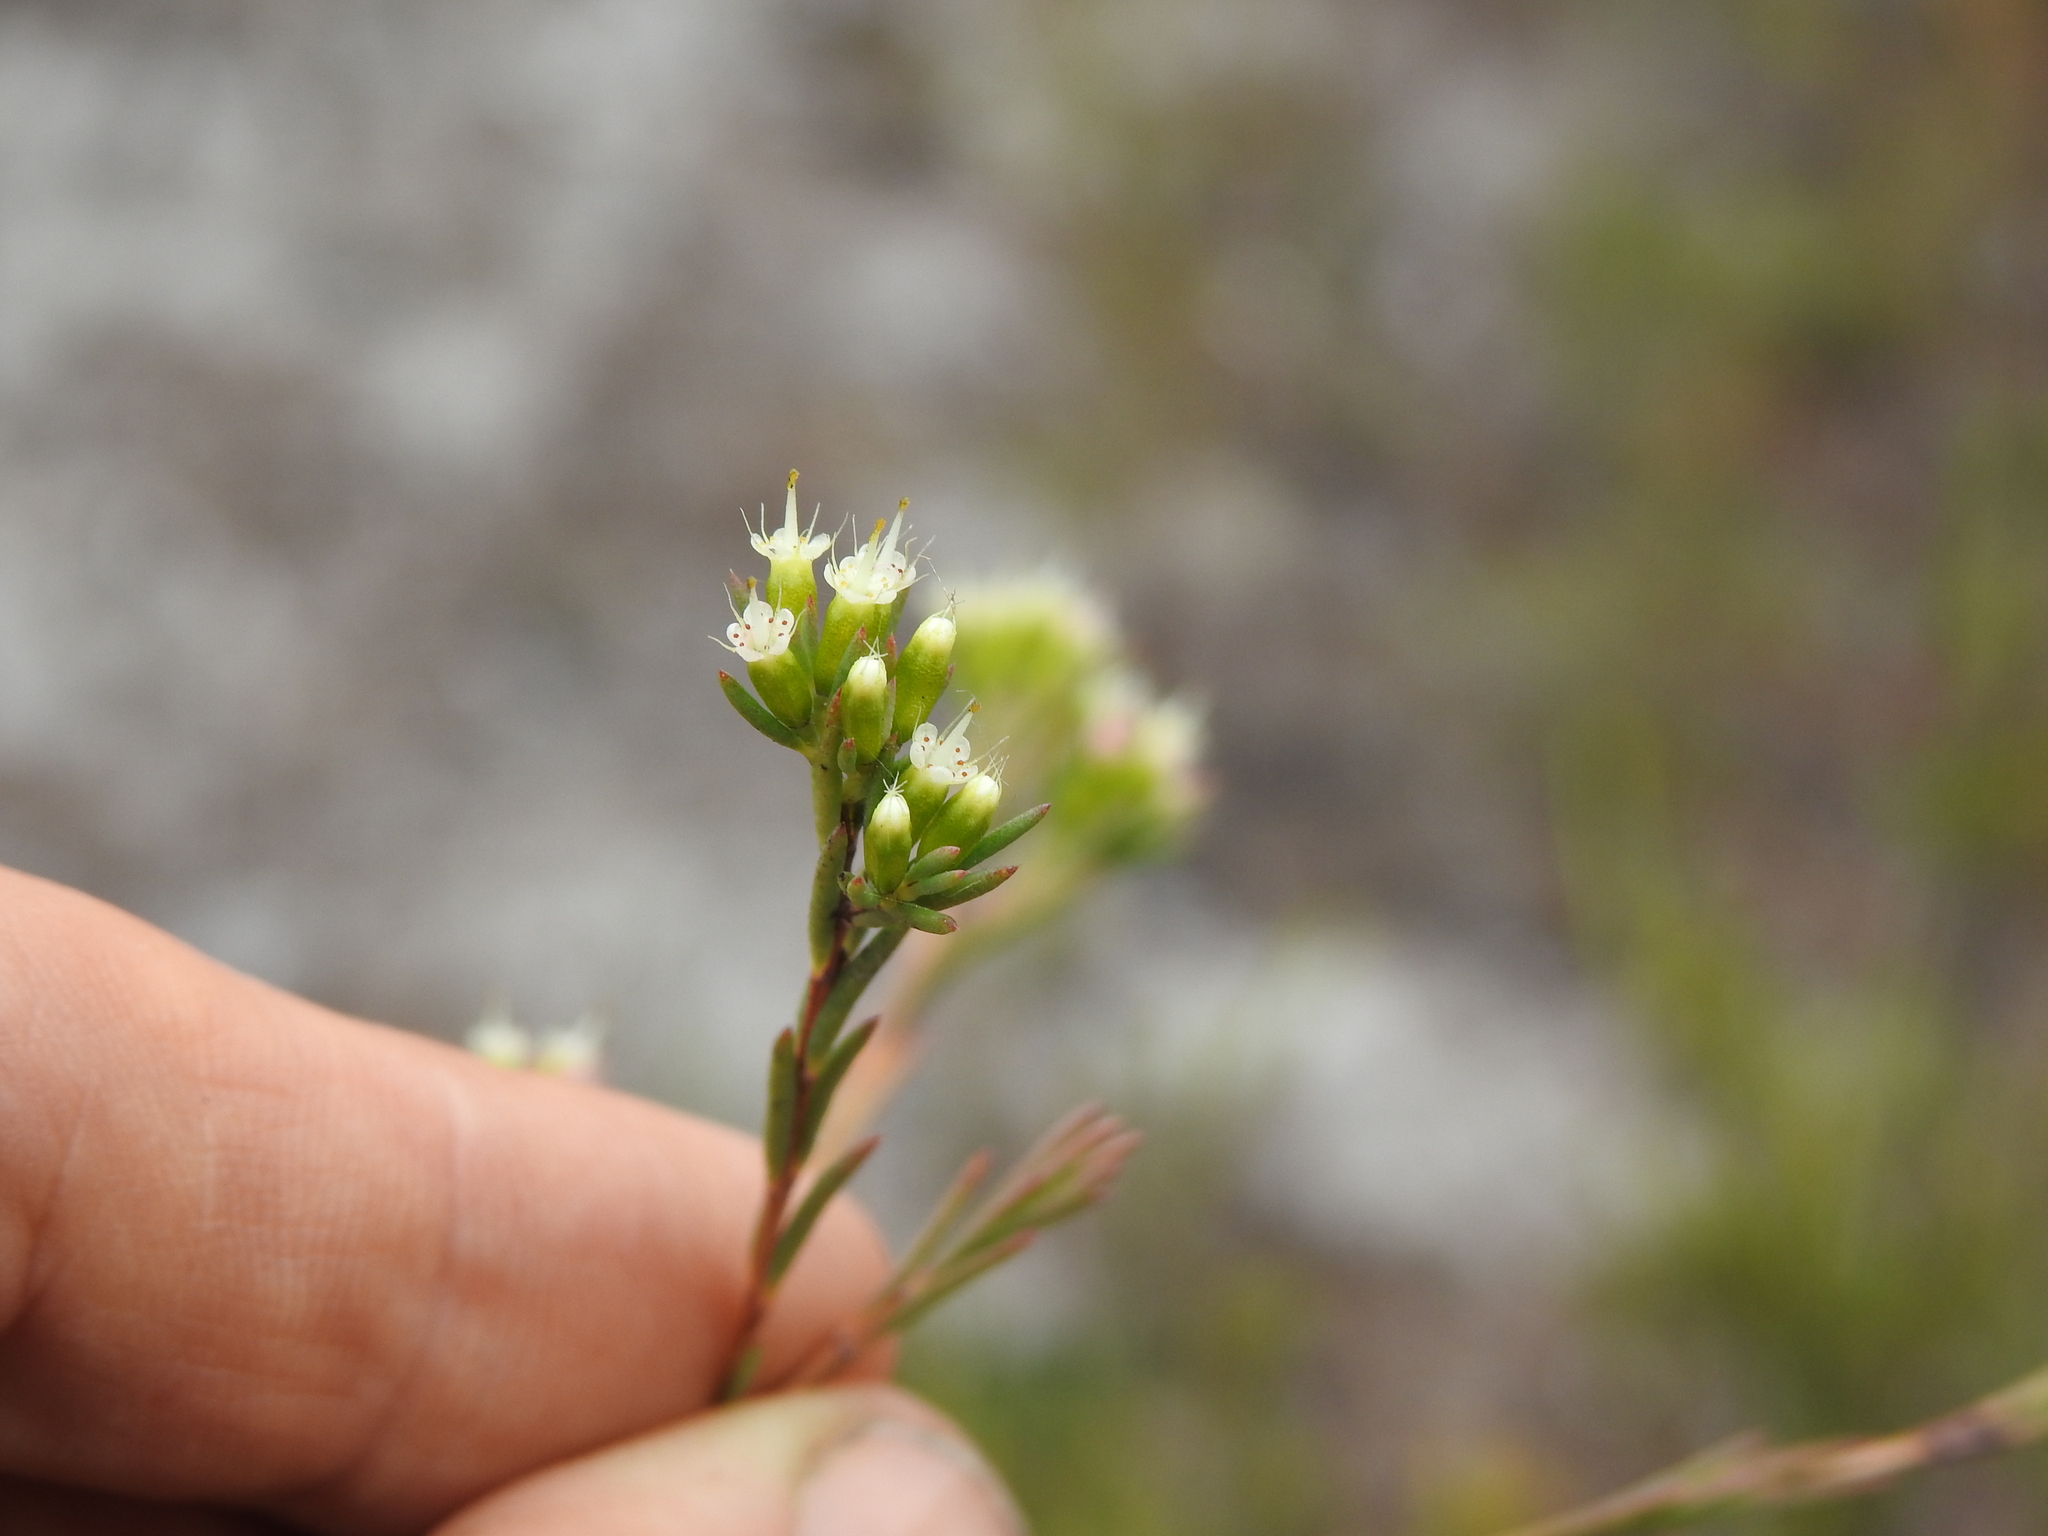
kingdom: Plantae
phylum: Tracheophyta
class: Magnoliopsida
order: Myrtales
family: Myrtaceae
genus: Homoranthus
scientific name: Homoranthus virgatus
